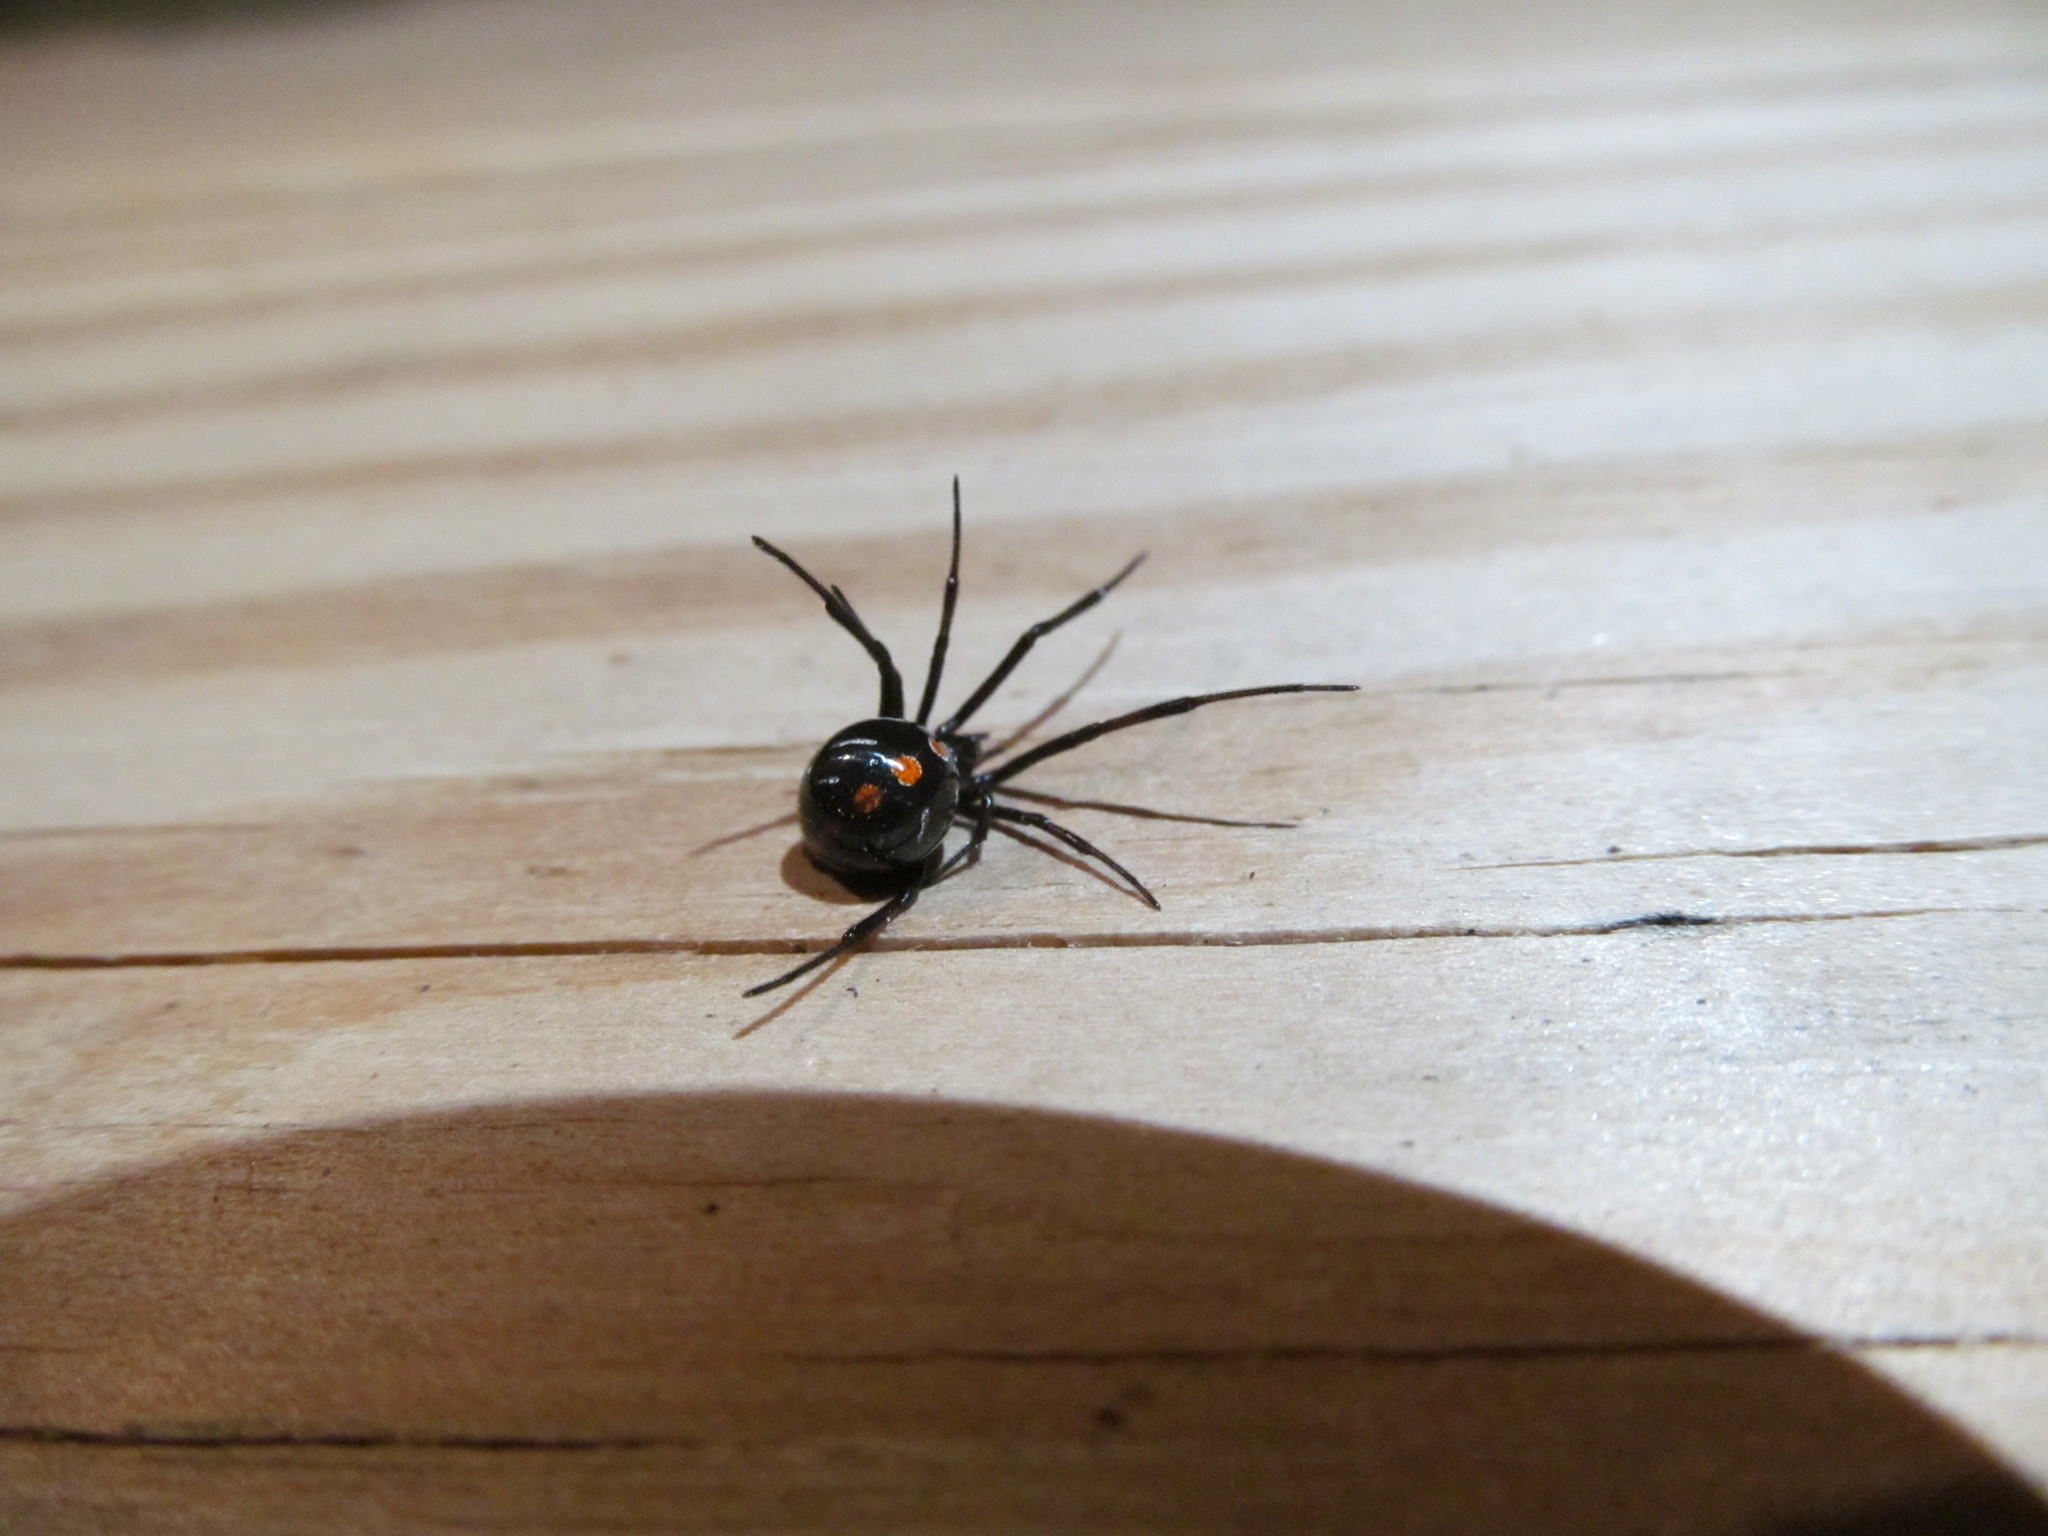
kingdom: Animalia
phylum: Arthropoda
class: Arachnida
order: Araneae
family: Theridiidae
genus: Latrodectus
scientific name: Latrodectus variolus
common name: Northern black widow
